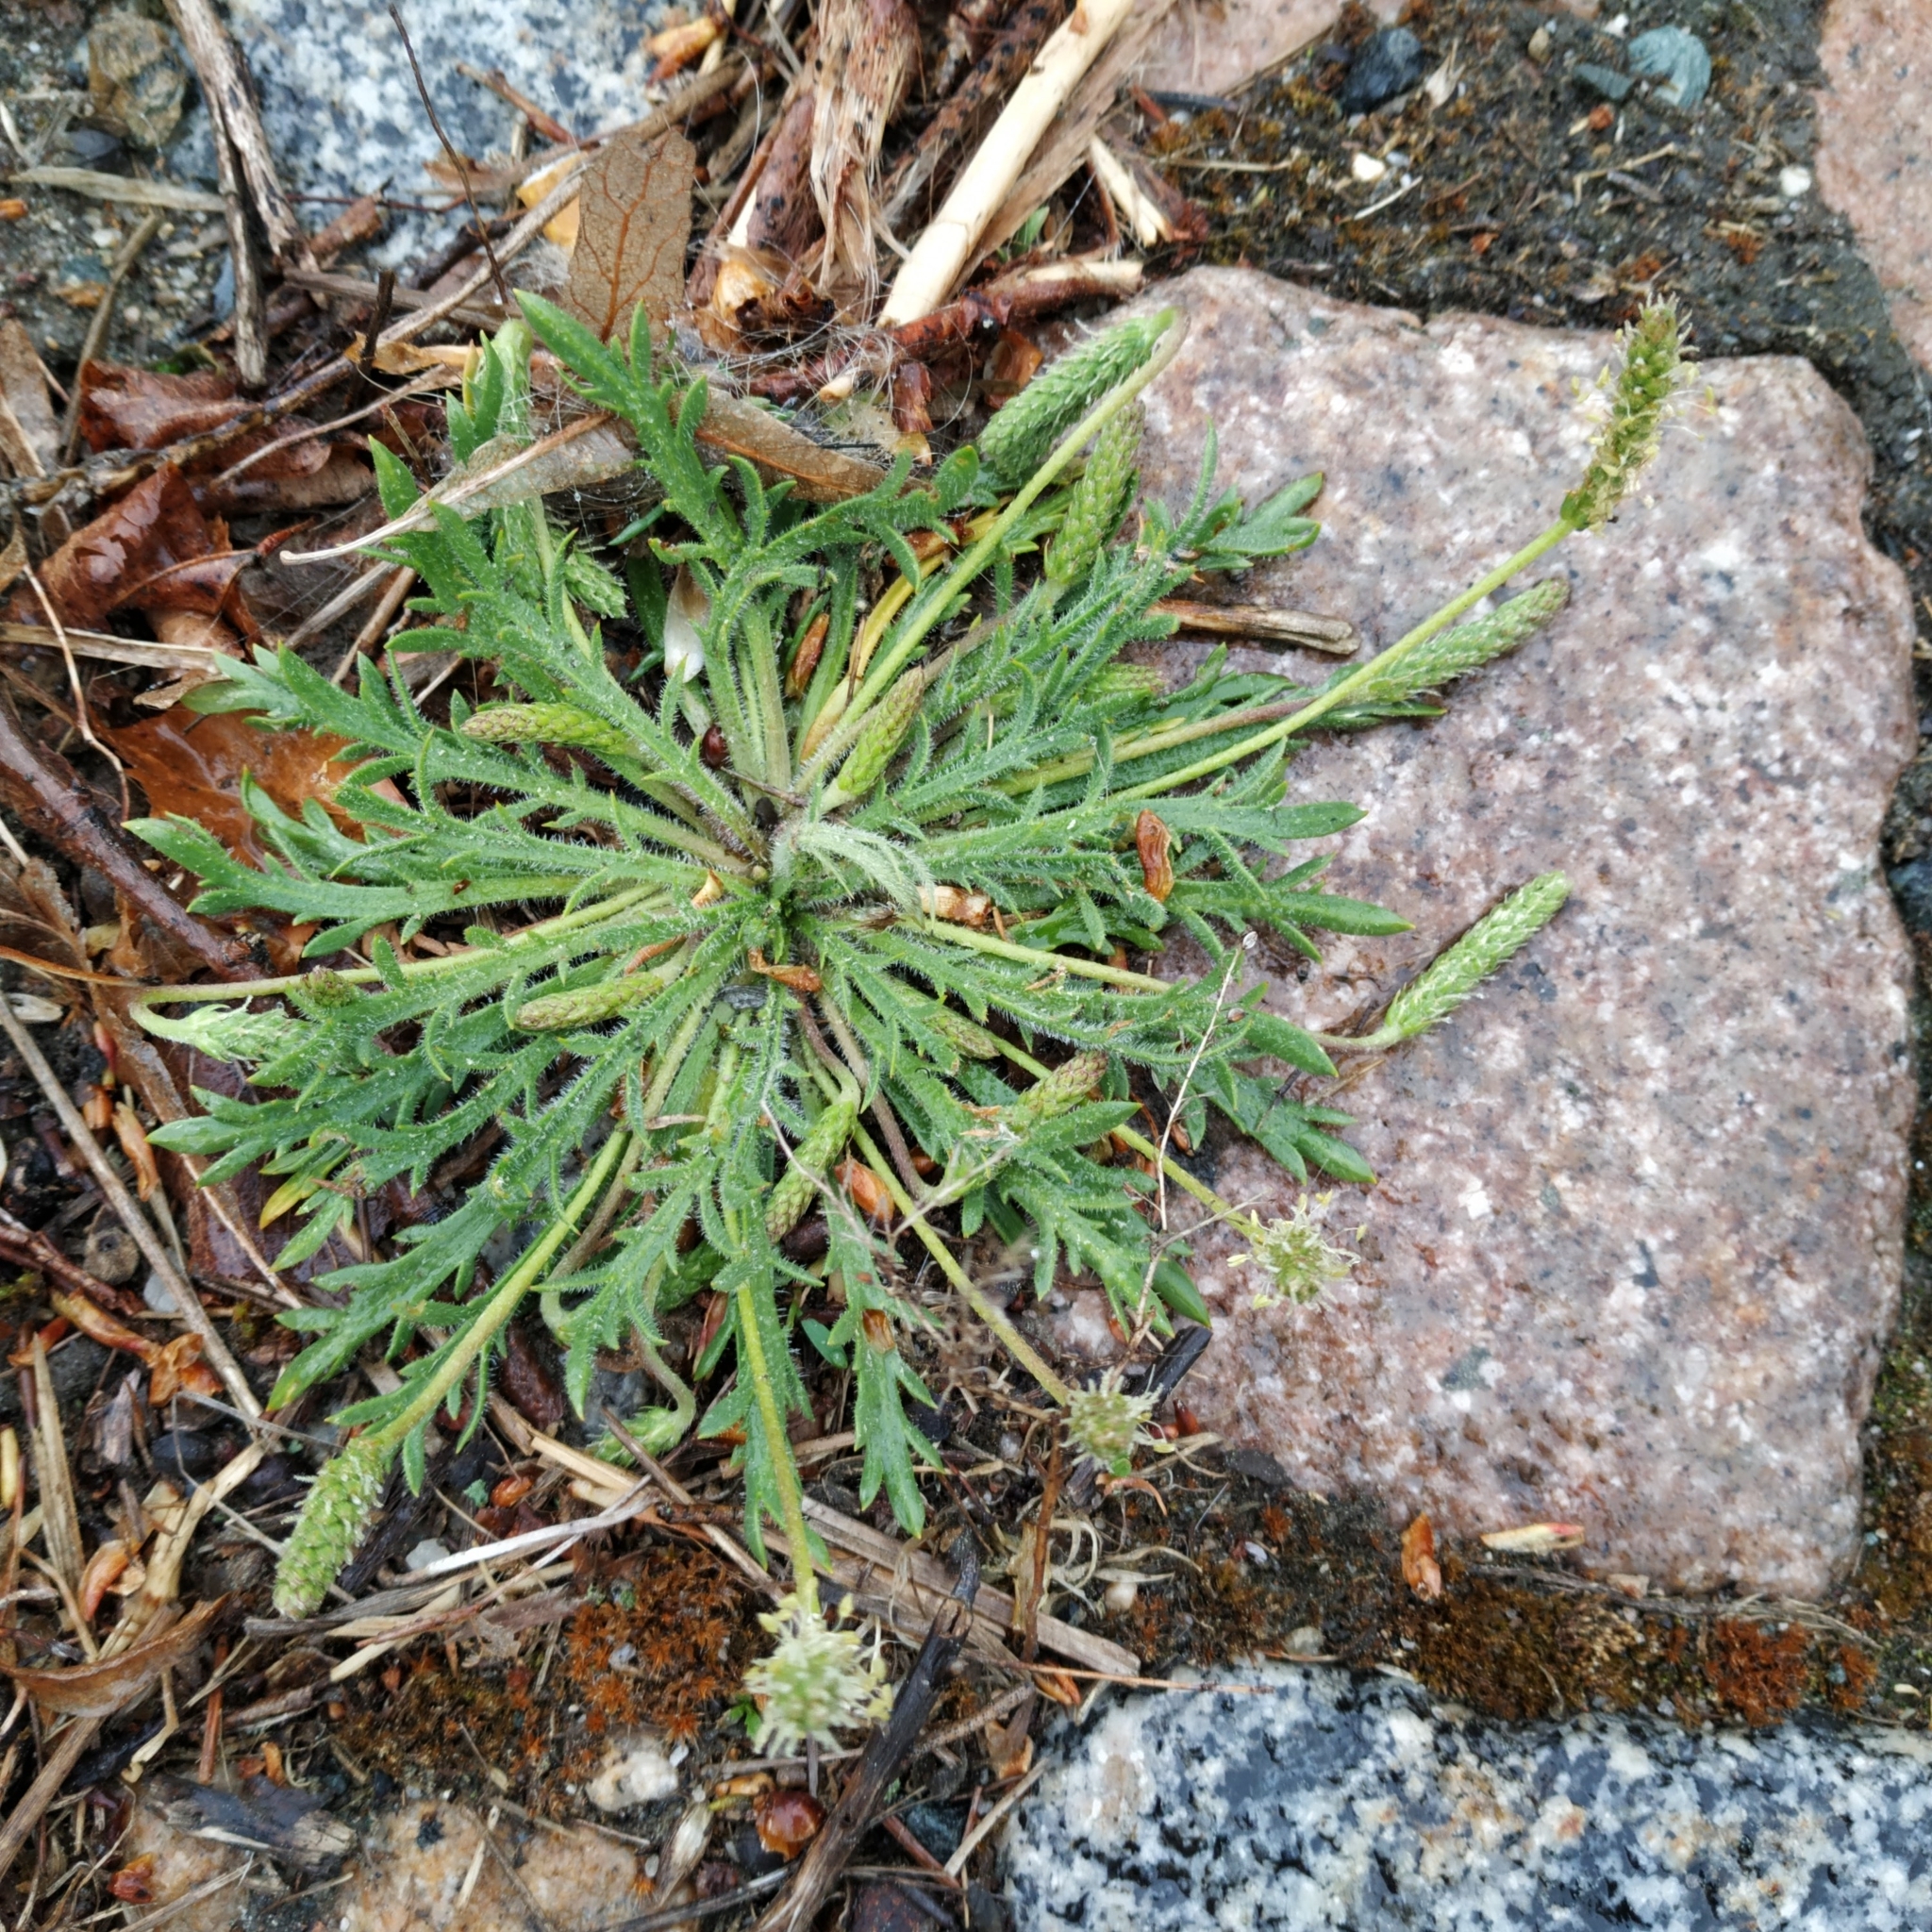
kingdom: Plantae
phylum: Tracheophyta
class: Magnoliopsida
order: Lamiales
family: Plantaginaceae
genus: Plantago
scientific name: Plantago coronopus
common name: Buck's-horn plantain
